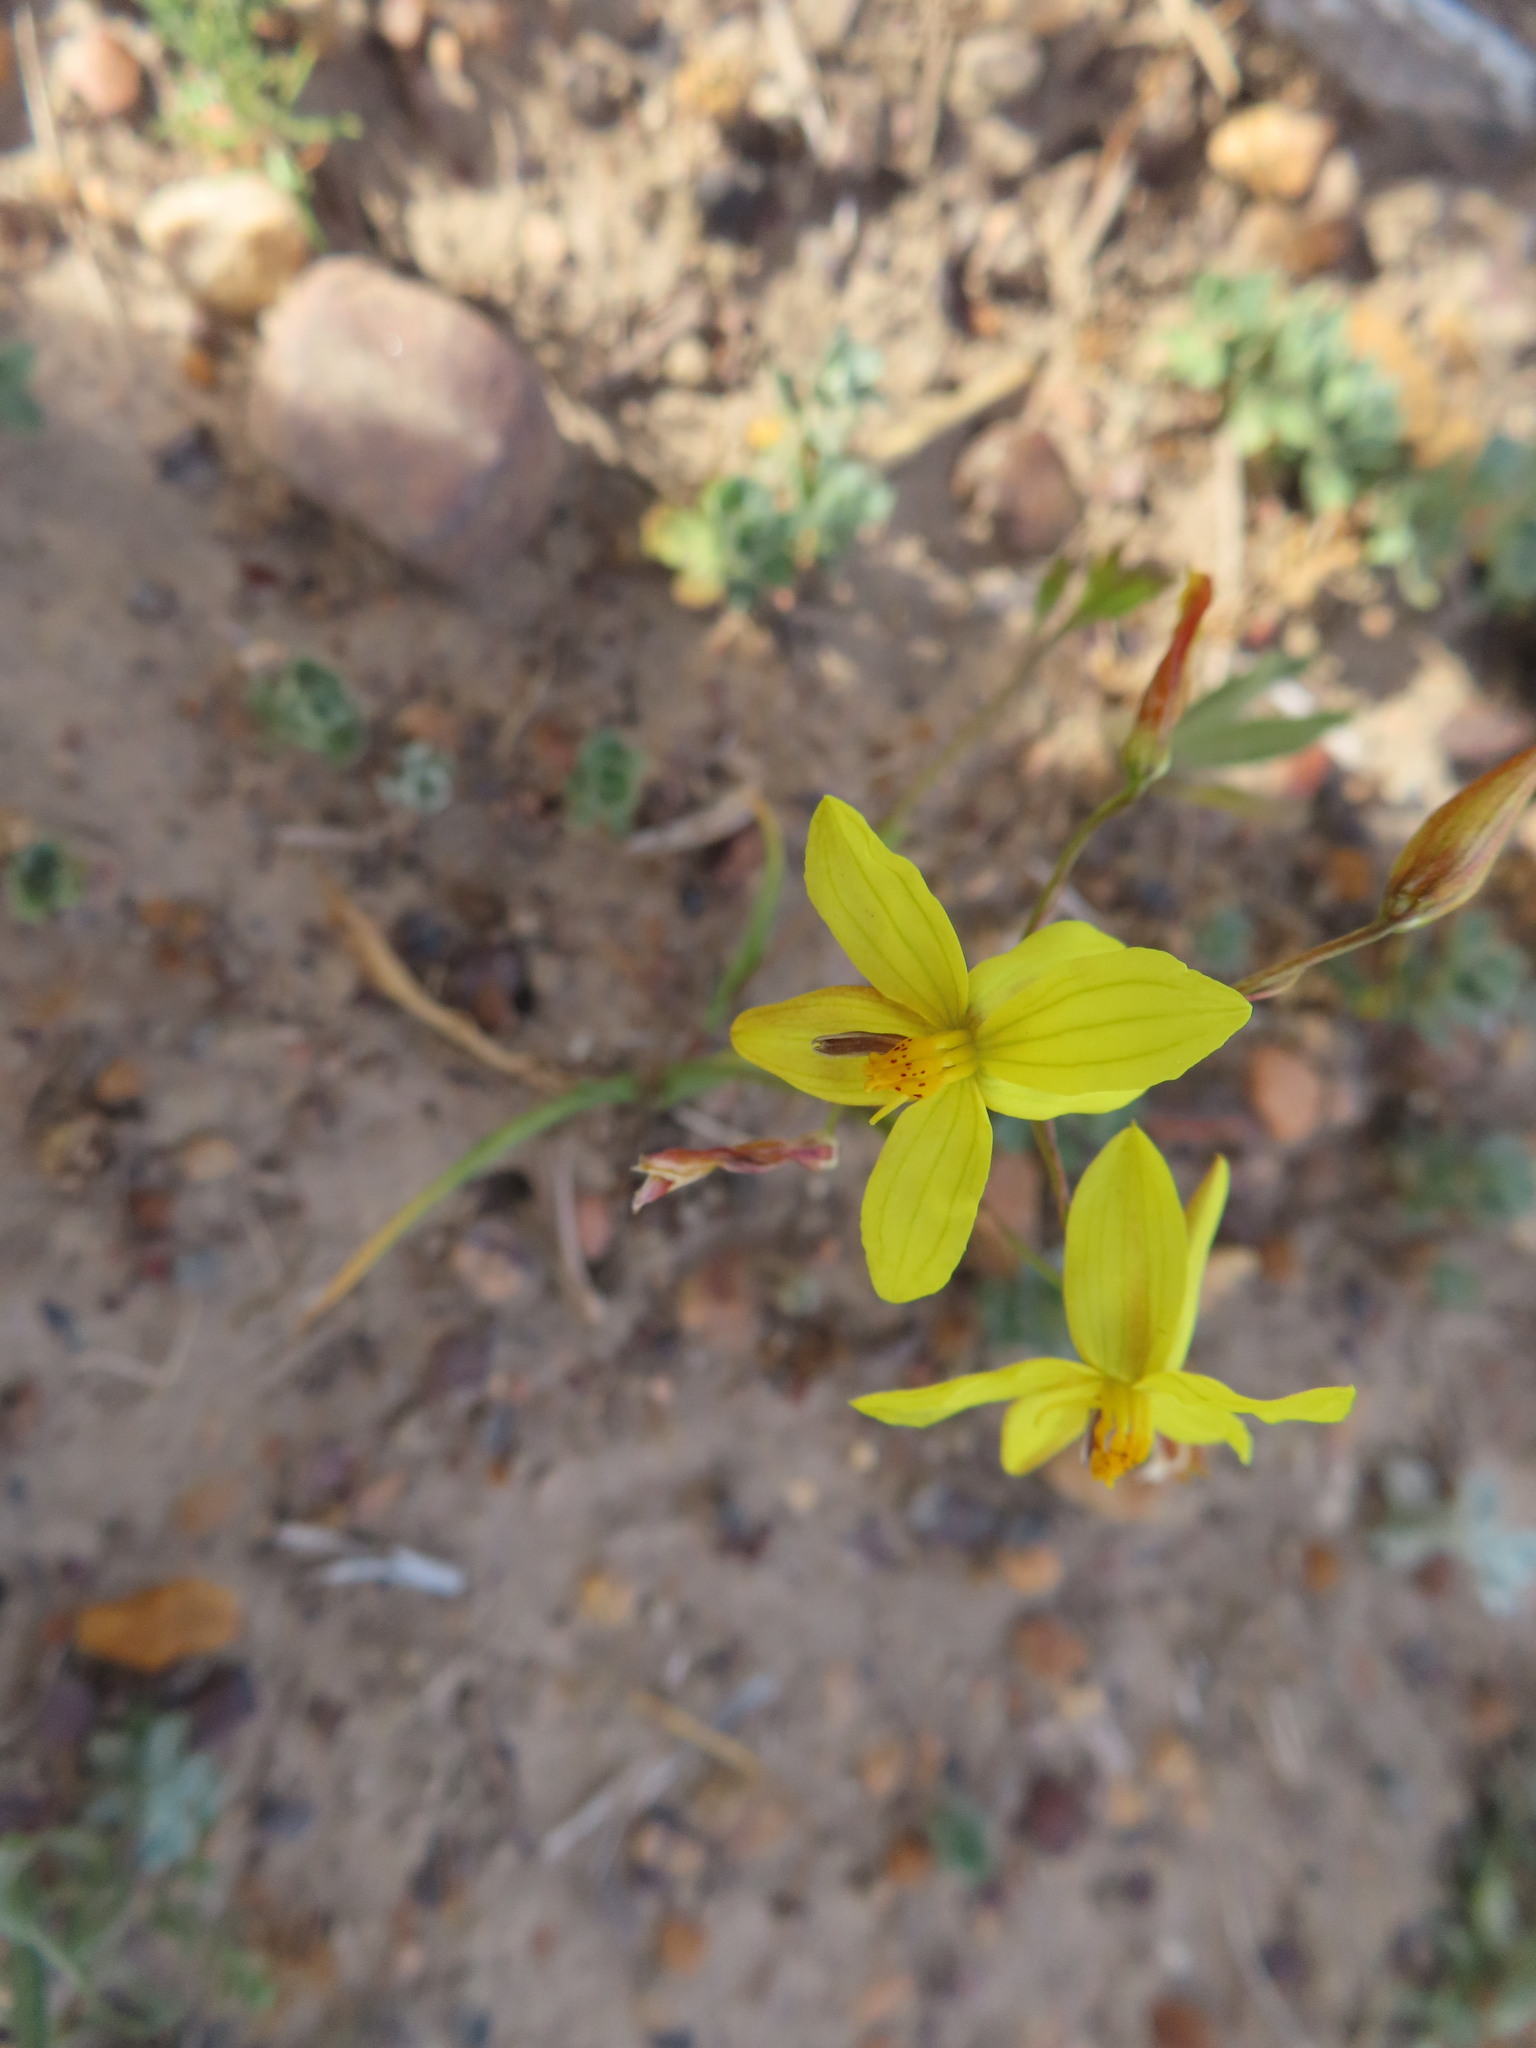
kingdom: Plantae
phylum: Tracheophyta
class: Liliopsida
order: Asparagales
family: Tecophilaeaceae
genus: Cyanella
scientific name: Cyanella lutea
